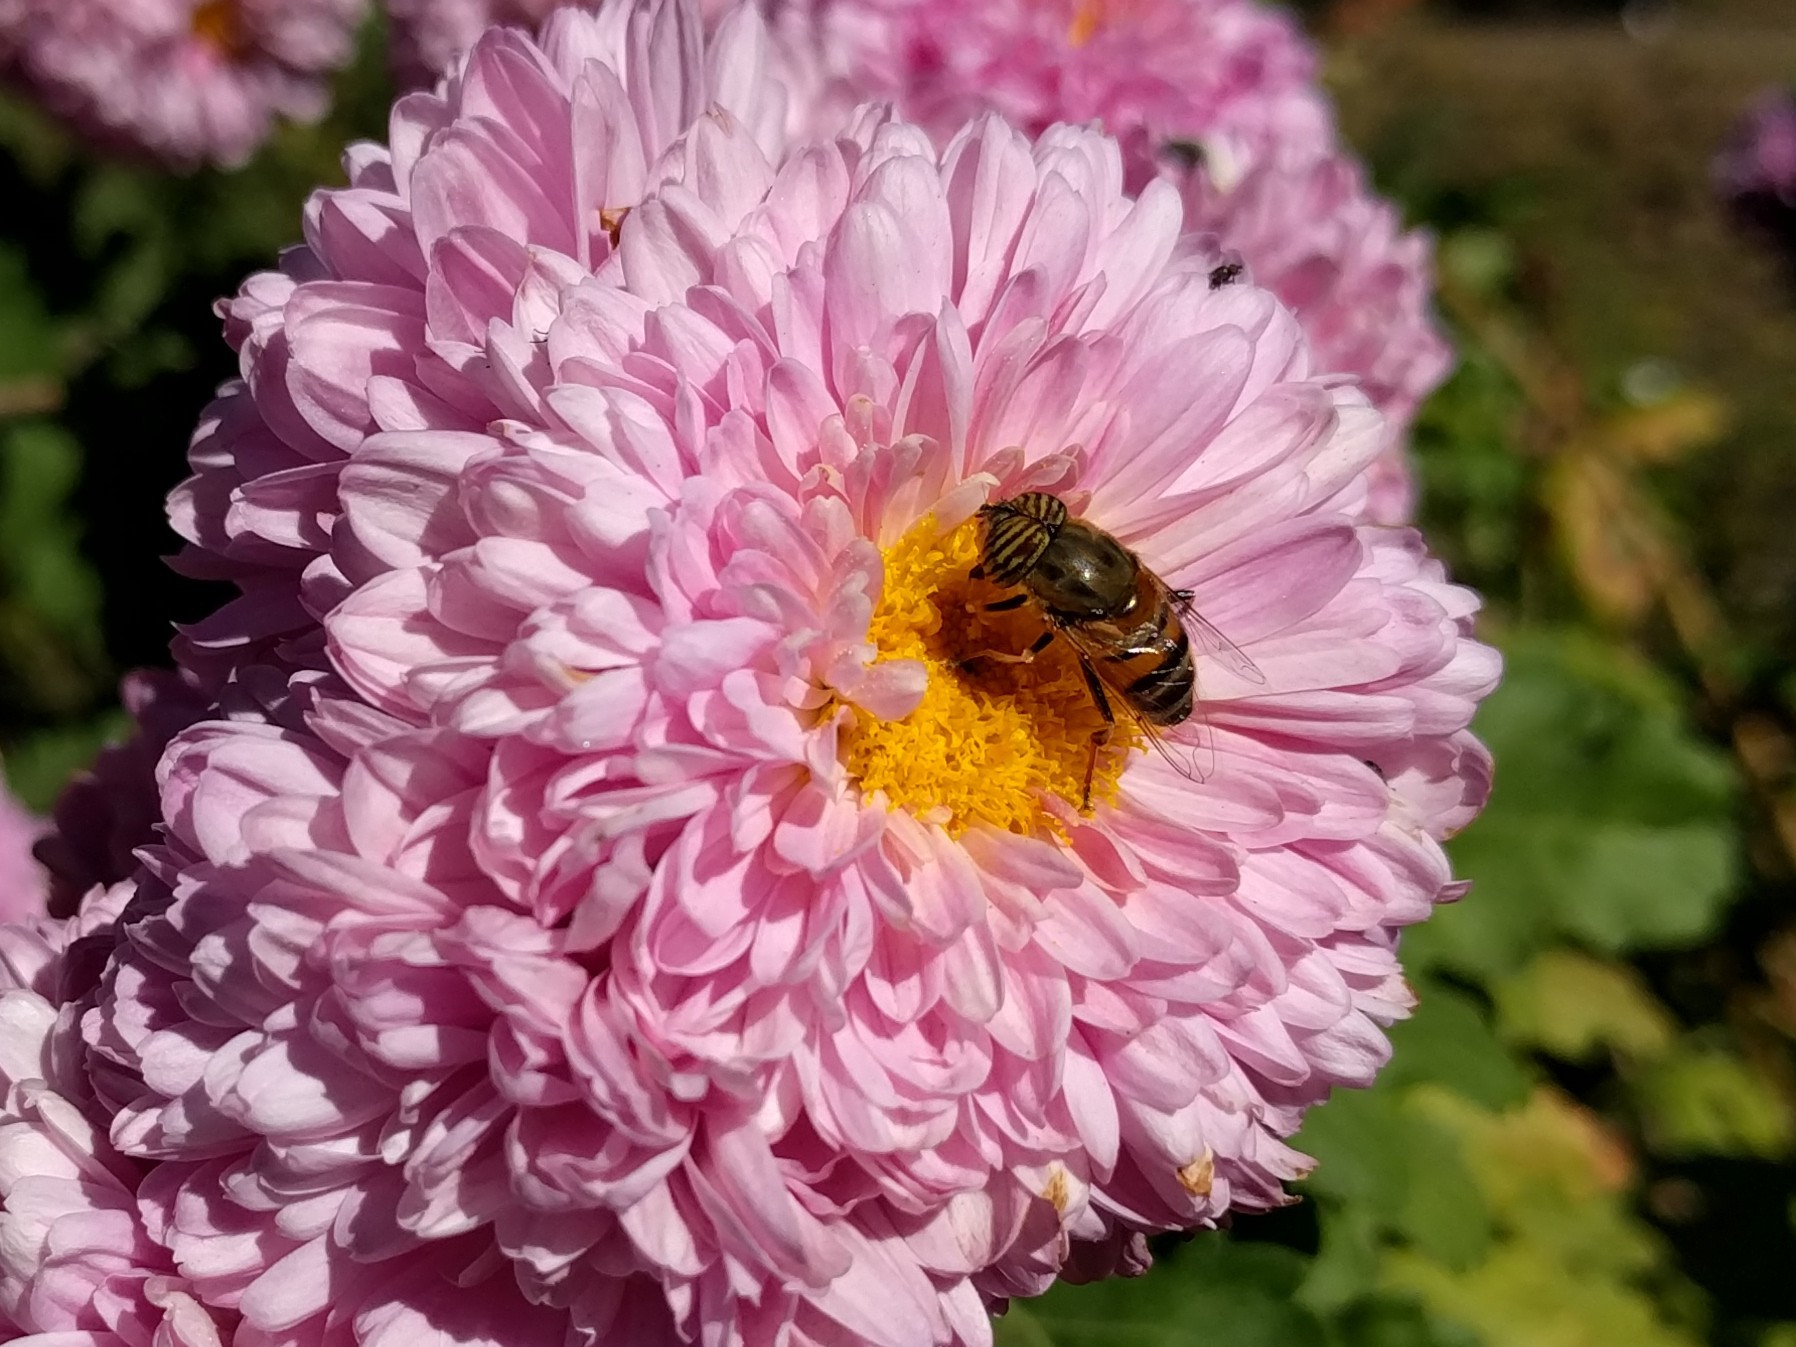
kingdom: Animalia
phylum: Arthropoda
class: Insecta
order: Diptera
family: Syrphidae
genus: Eristalinus
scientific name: Eristalinus taeniops
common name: Syrphid fly
